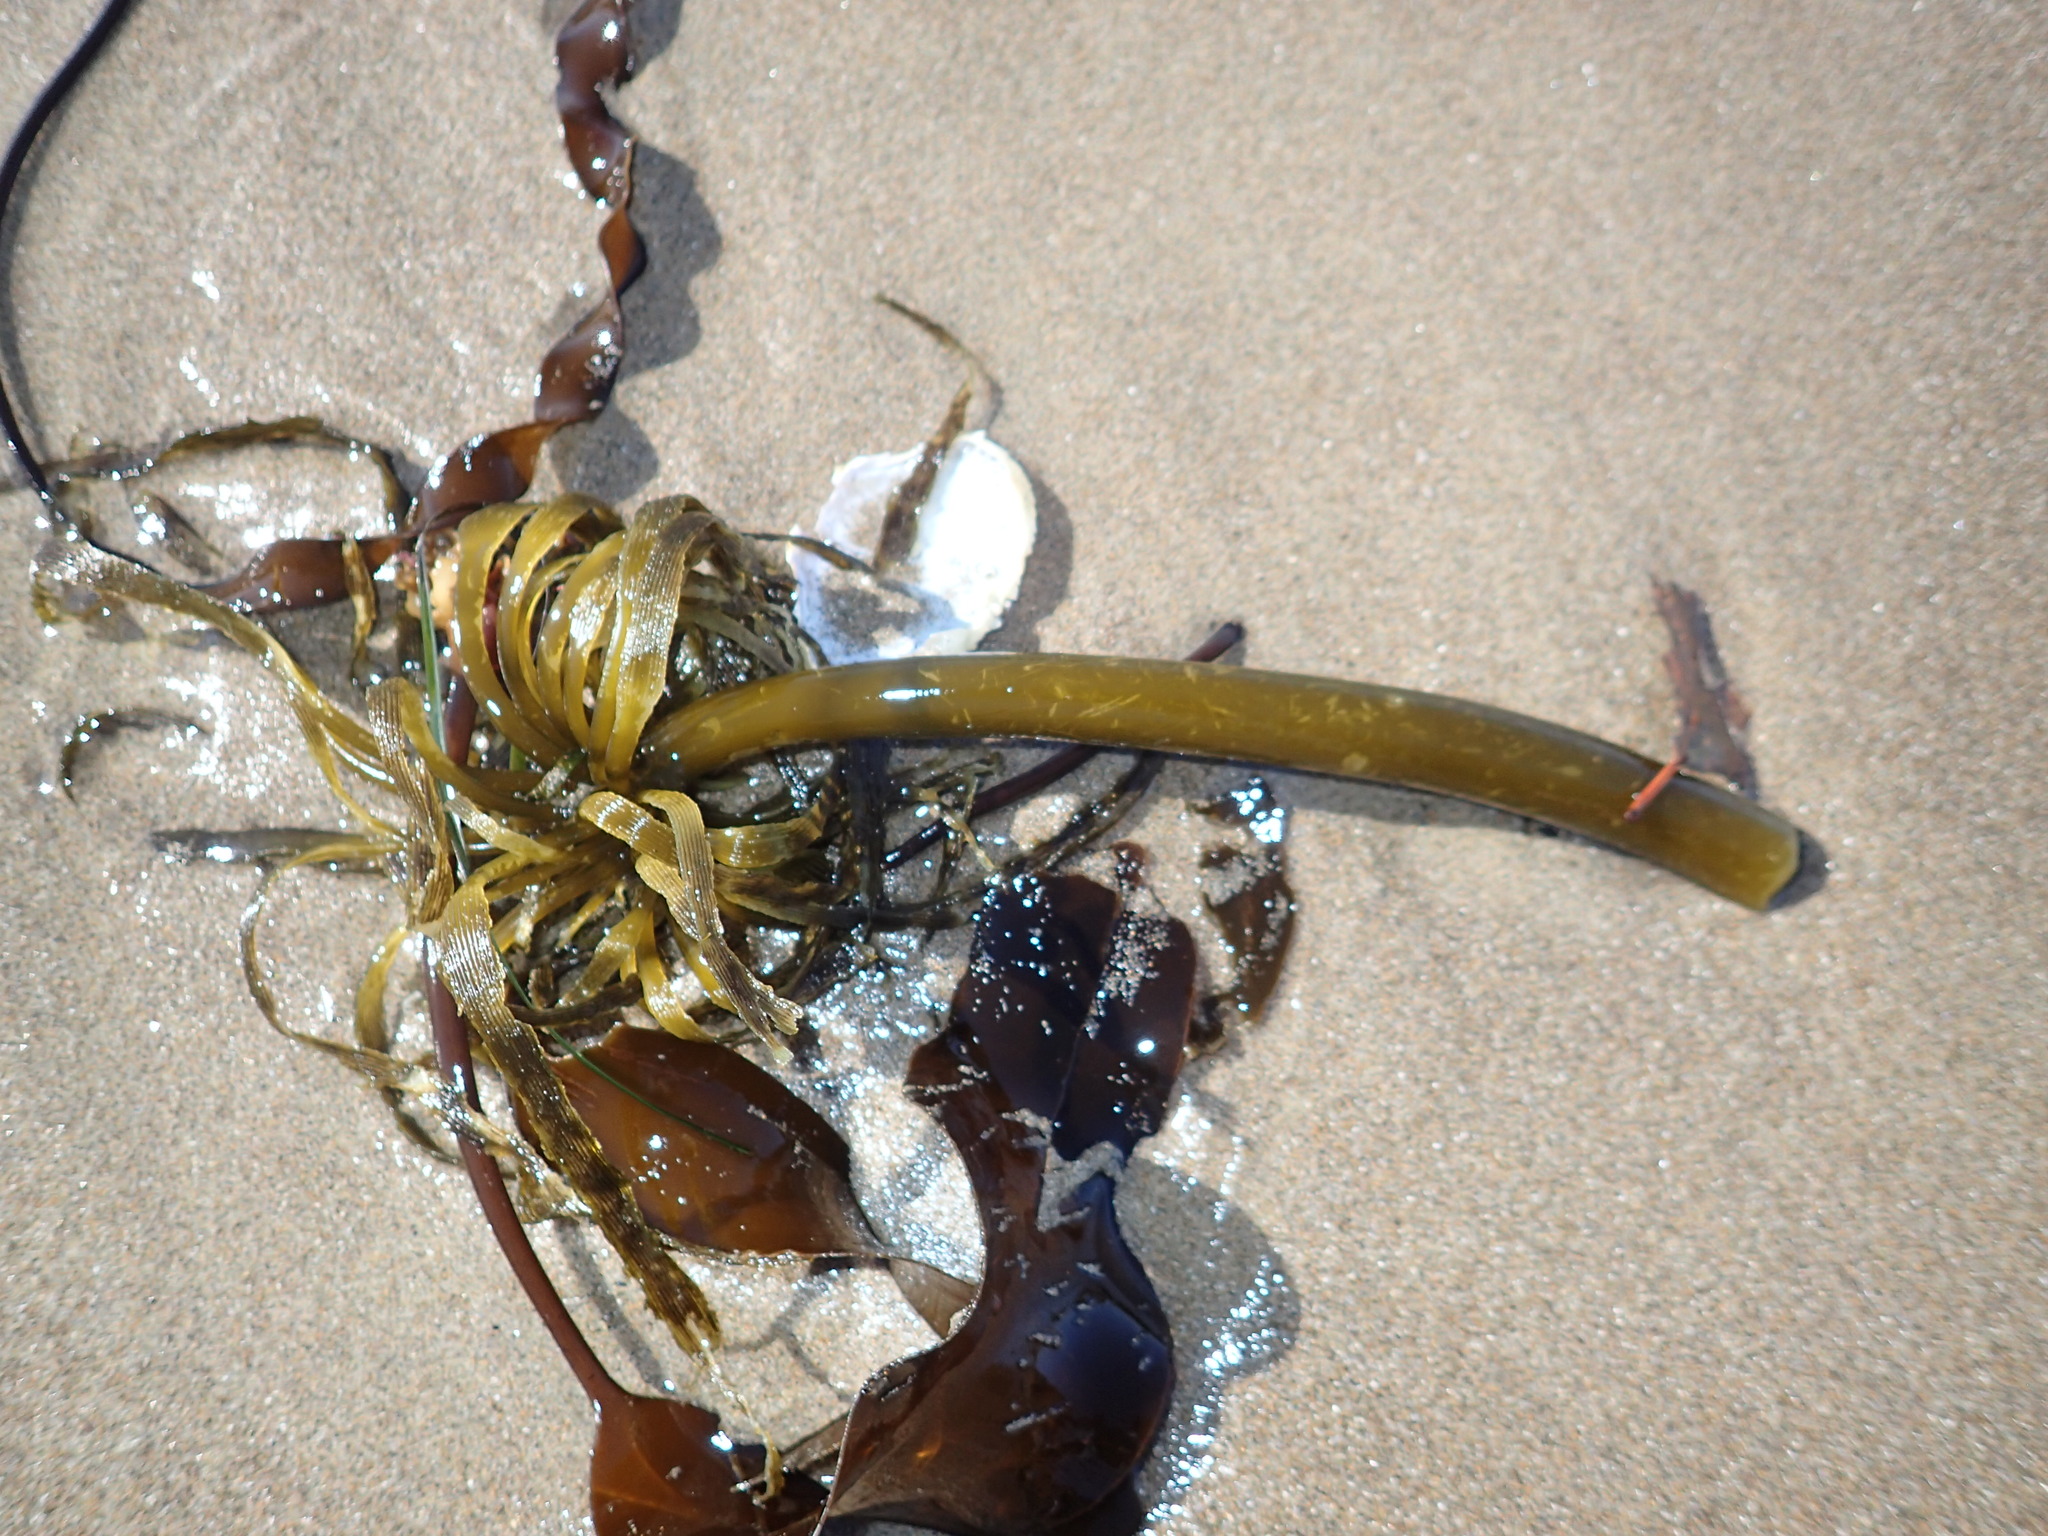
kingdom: Chromista
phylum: Ochrophyta
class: Phaeophyceae
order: Laminariales
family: Laminariaceae
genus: Postelsia
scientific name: Postelsia palmiformis
